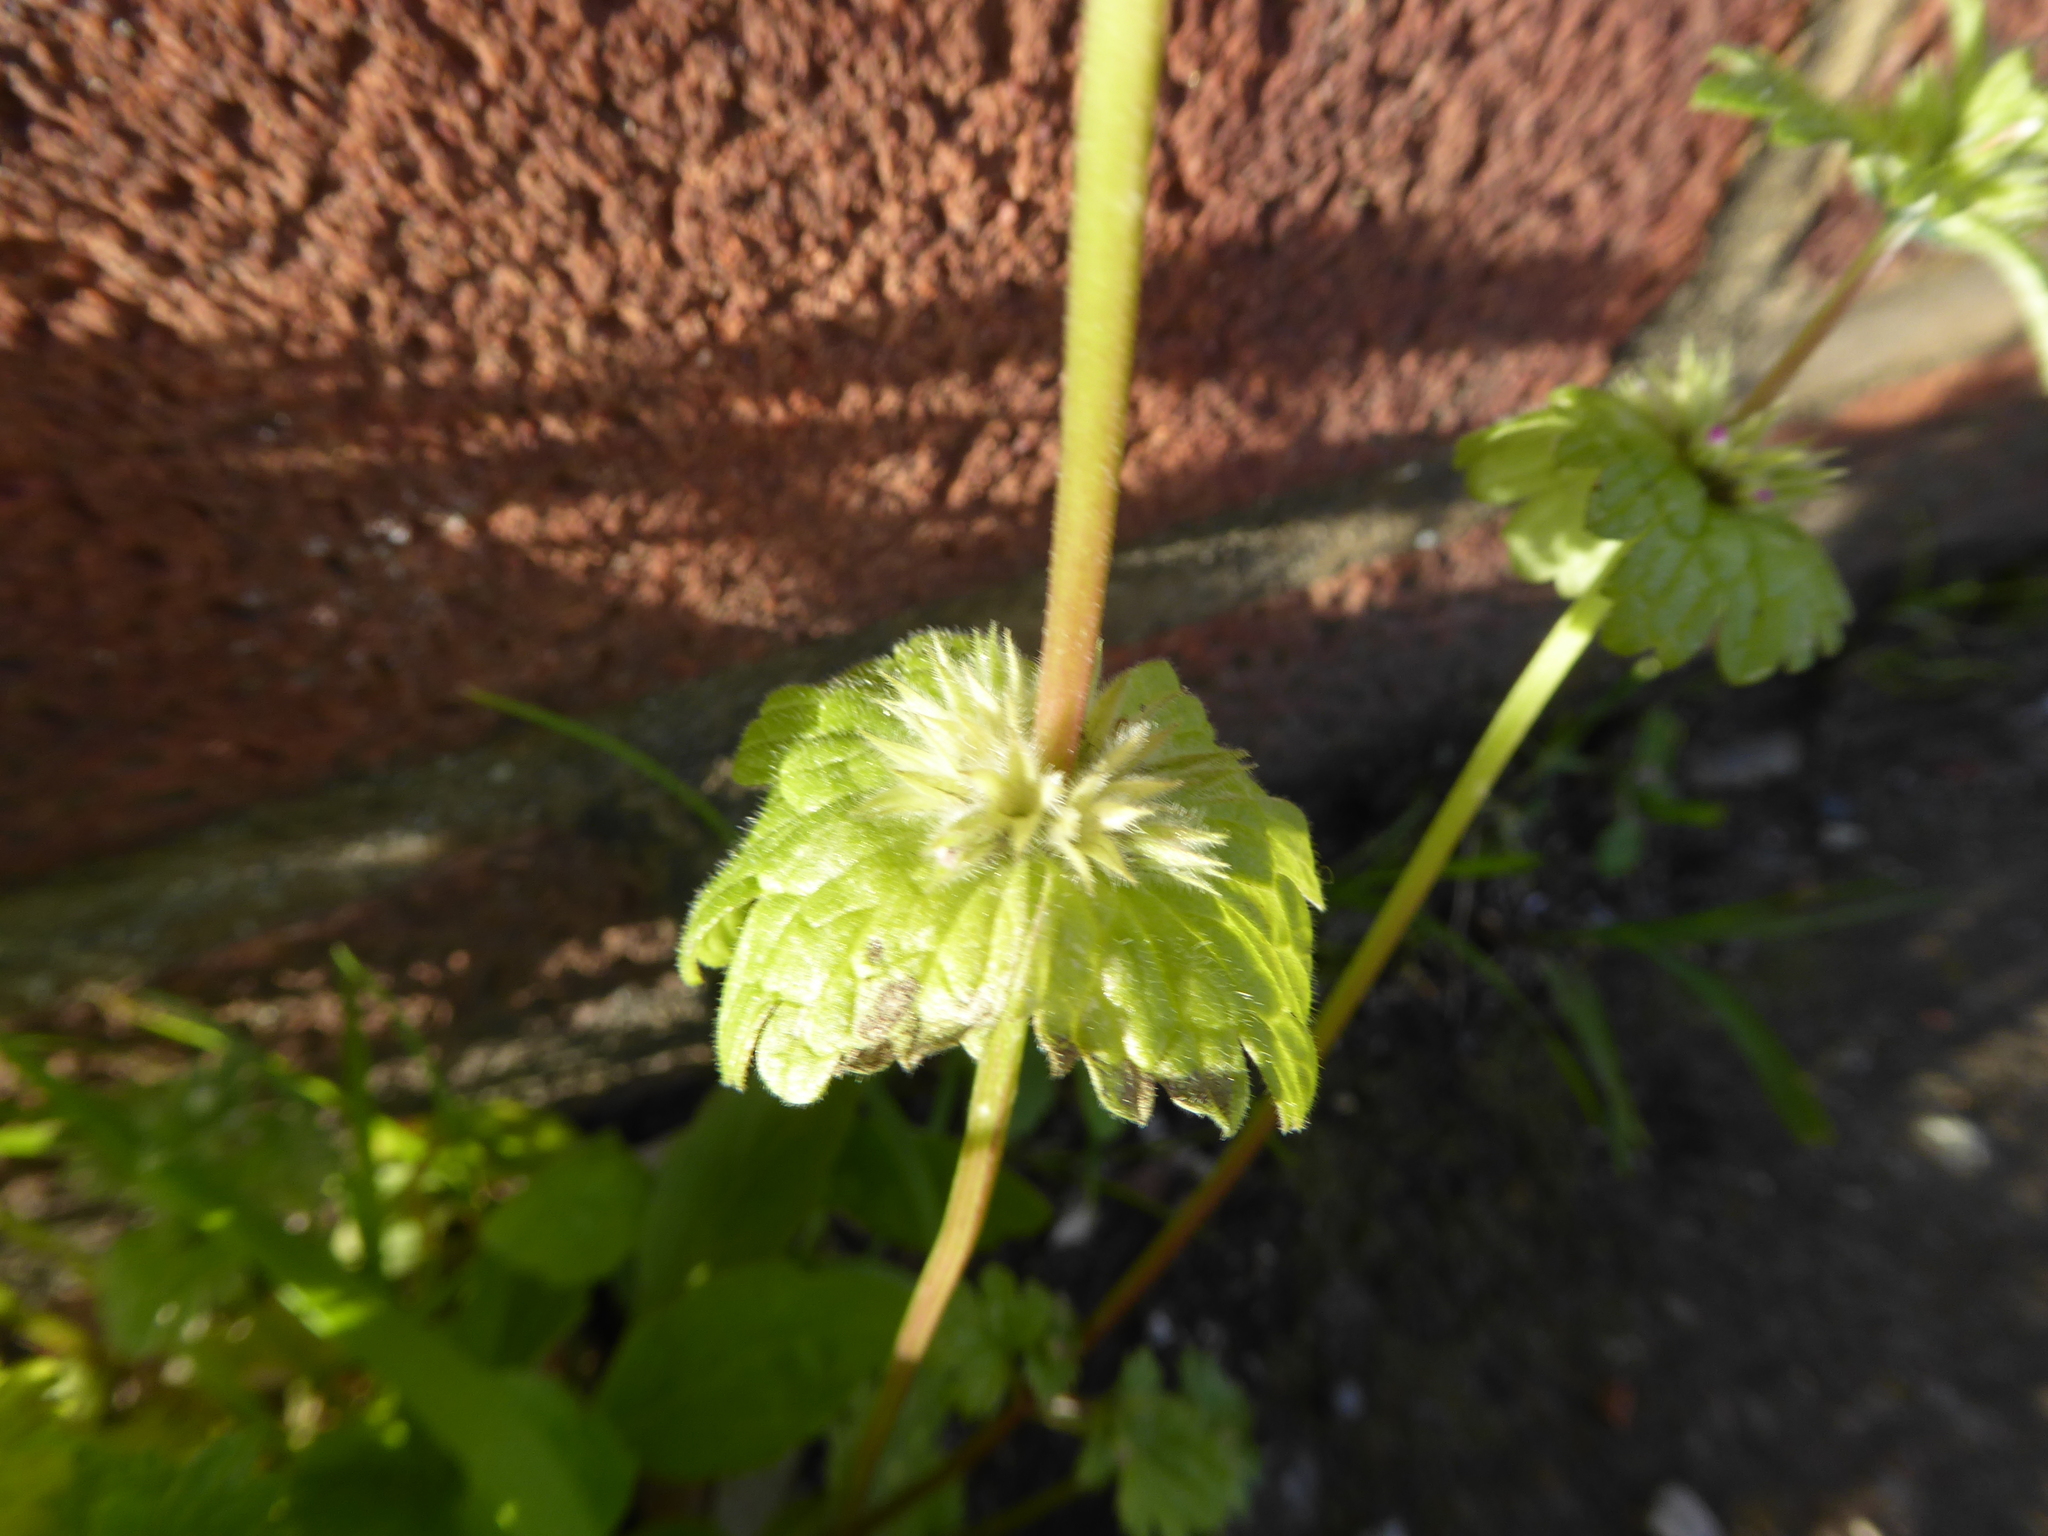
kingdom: Plantae
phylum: Tracheophyta
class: Magnoliopsida
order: Lamiales
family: Lamiaceae
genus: Lamium
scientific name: Lamium amplexicaule
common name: Henbit dead-nettle
